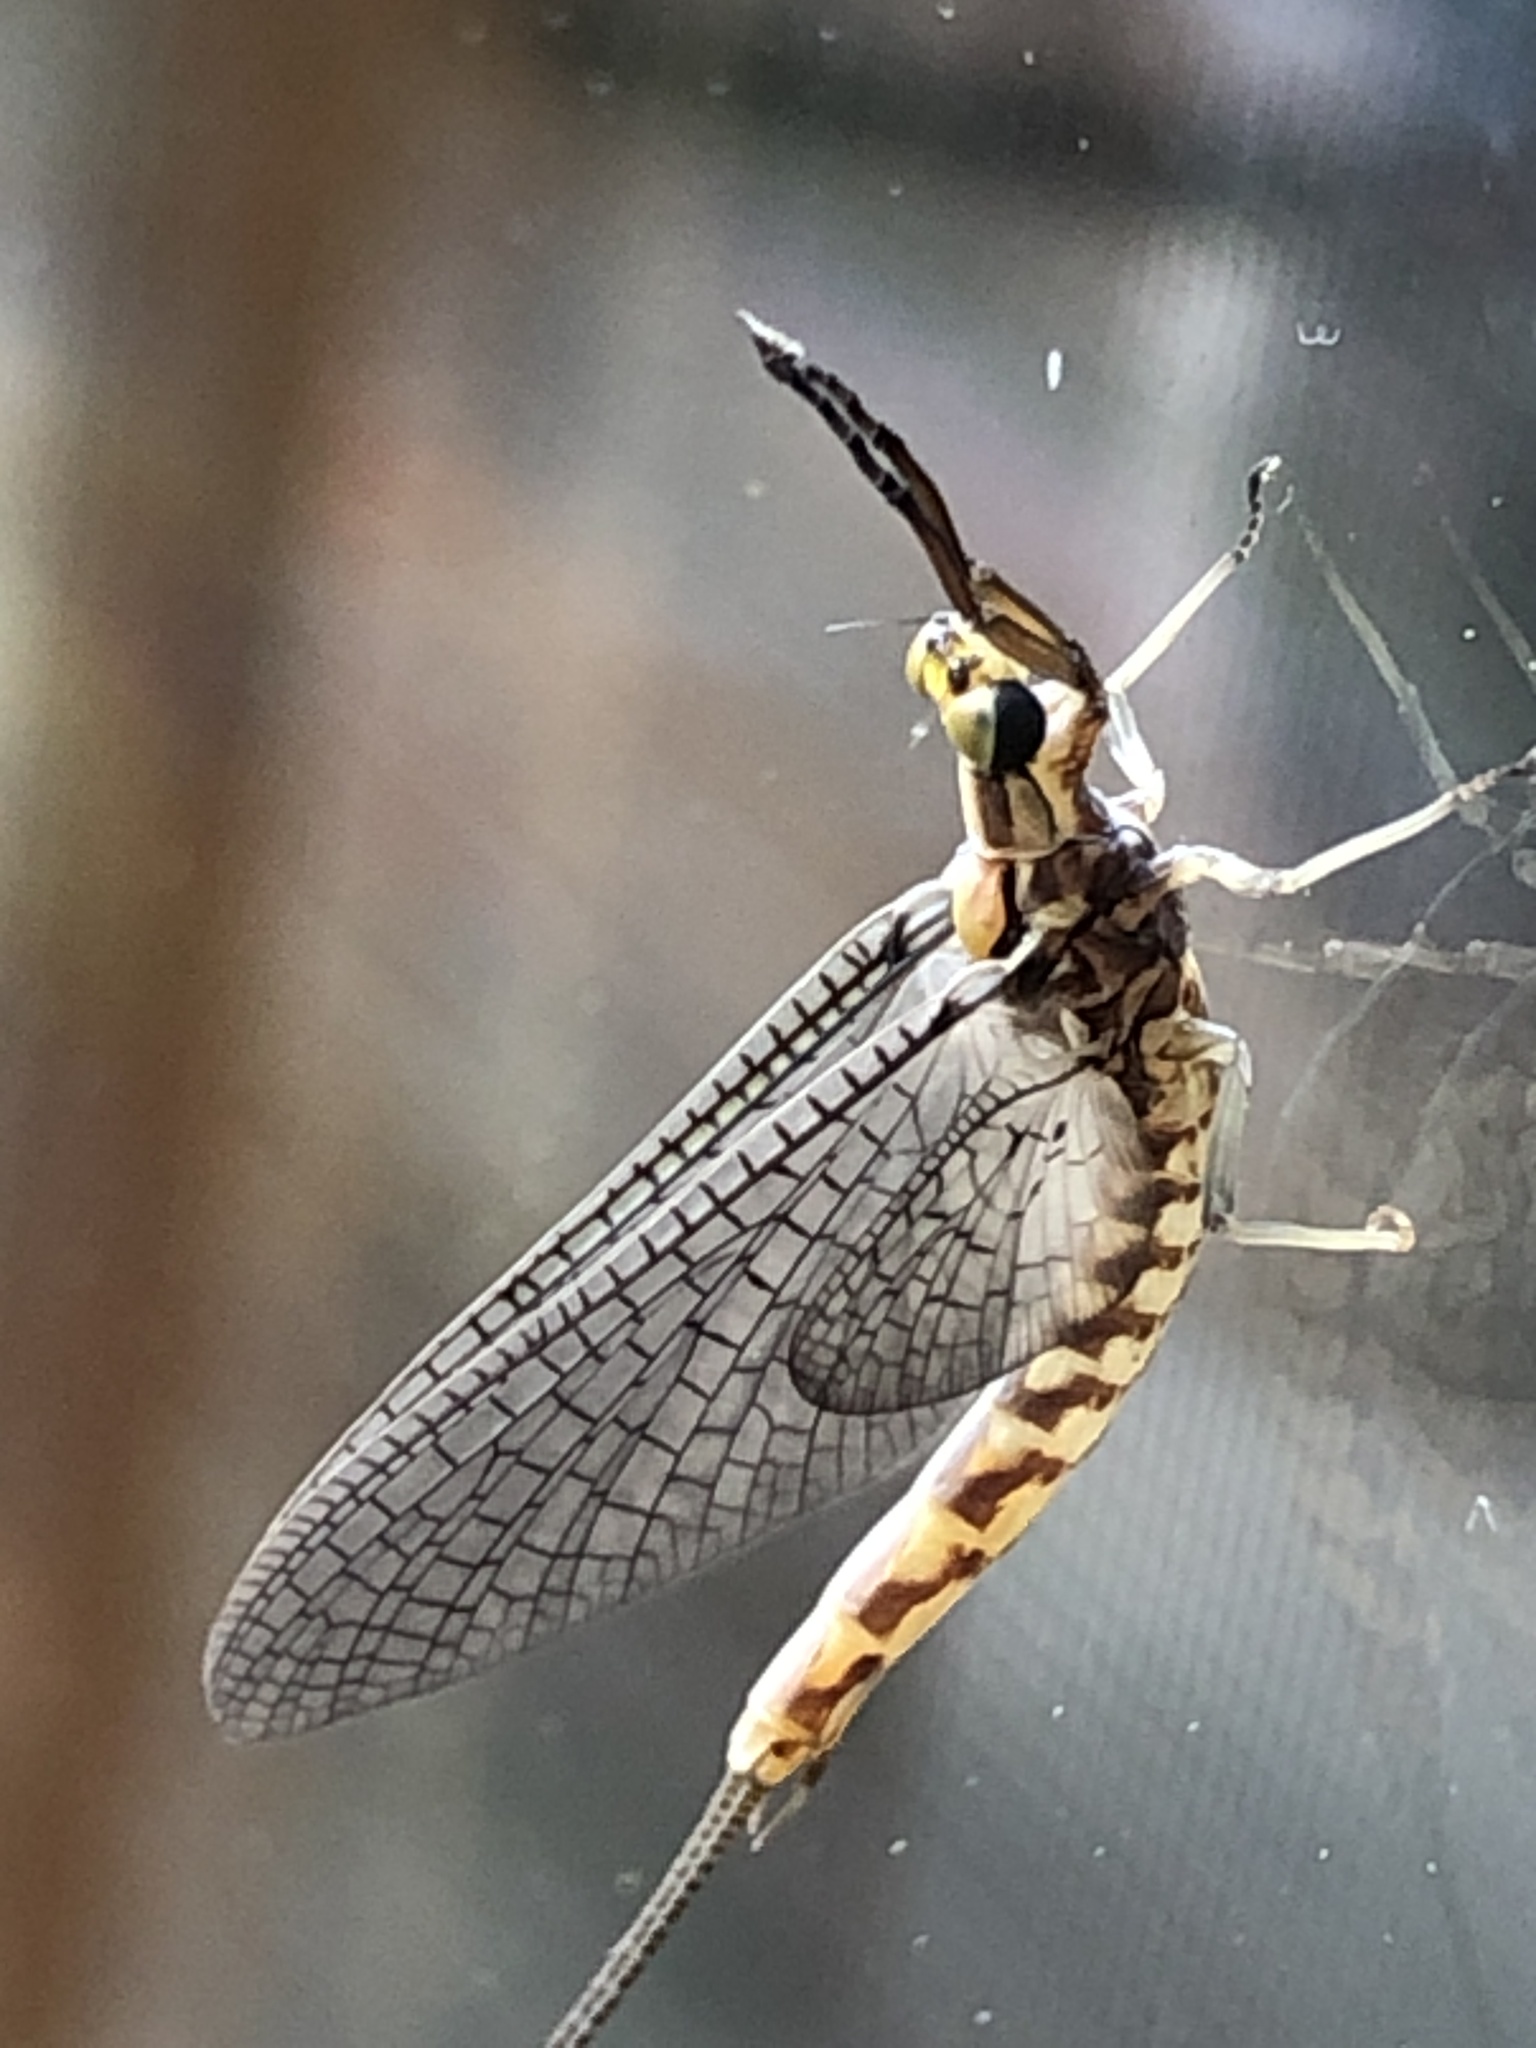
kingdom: Animalia
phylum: Arthropoda
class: Insecta
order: Ephemeroptera
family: Ephemeridae
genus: Hexagenia
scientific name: Hexagenia limbata
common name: Giant mayfly
